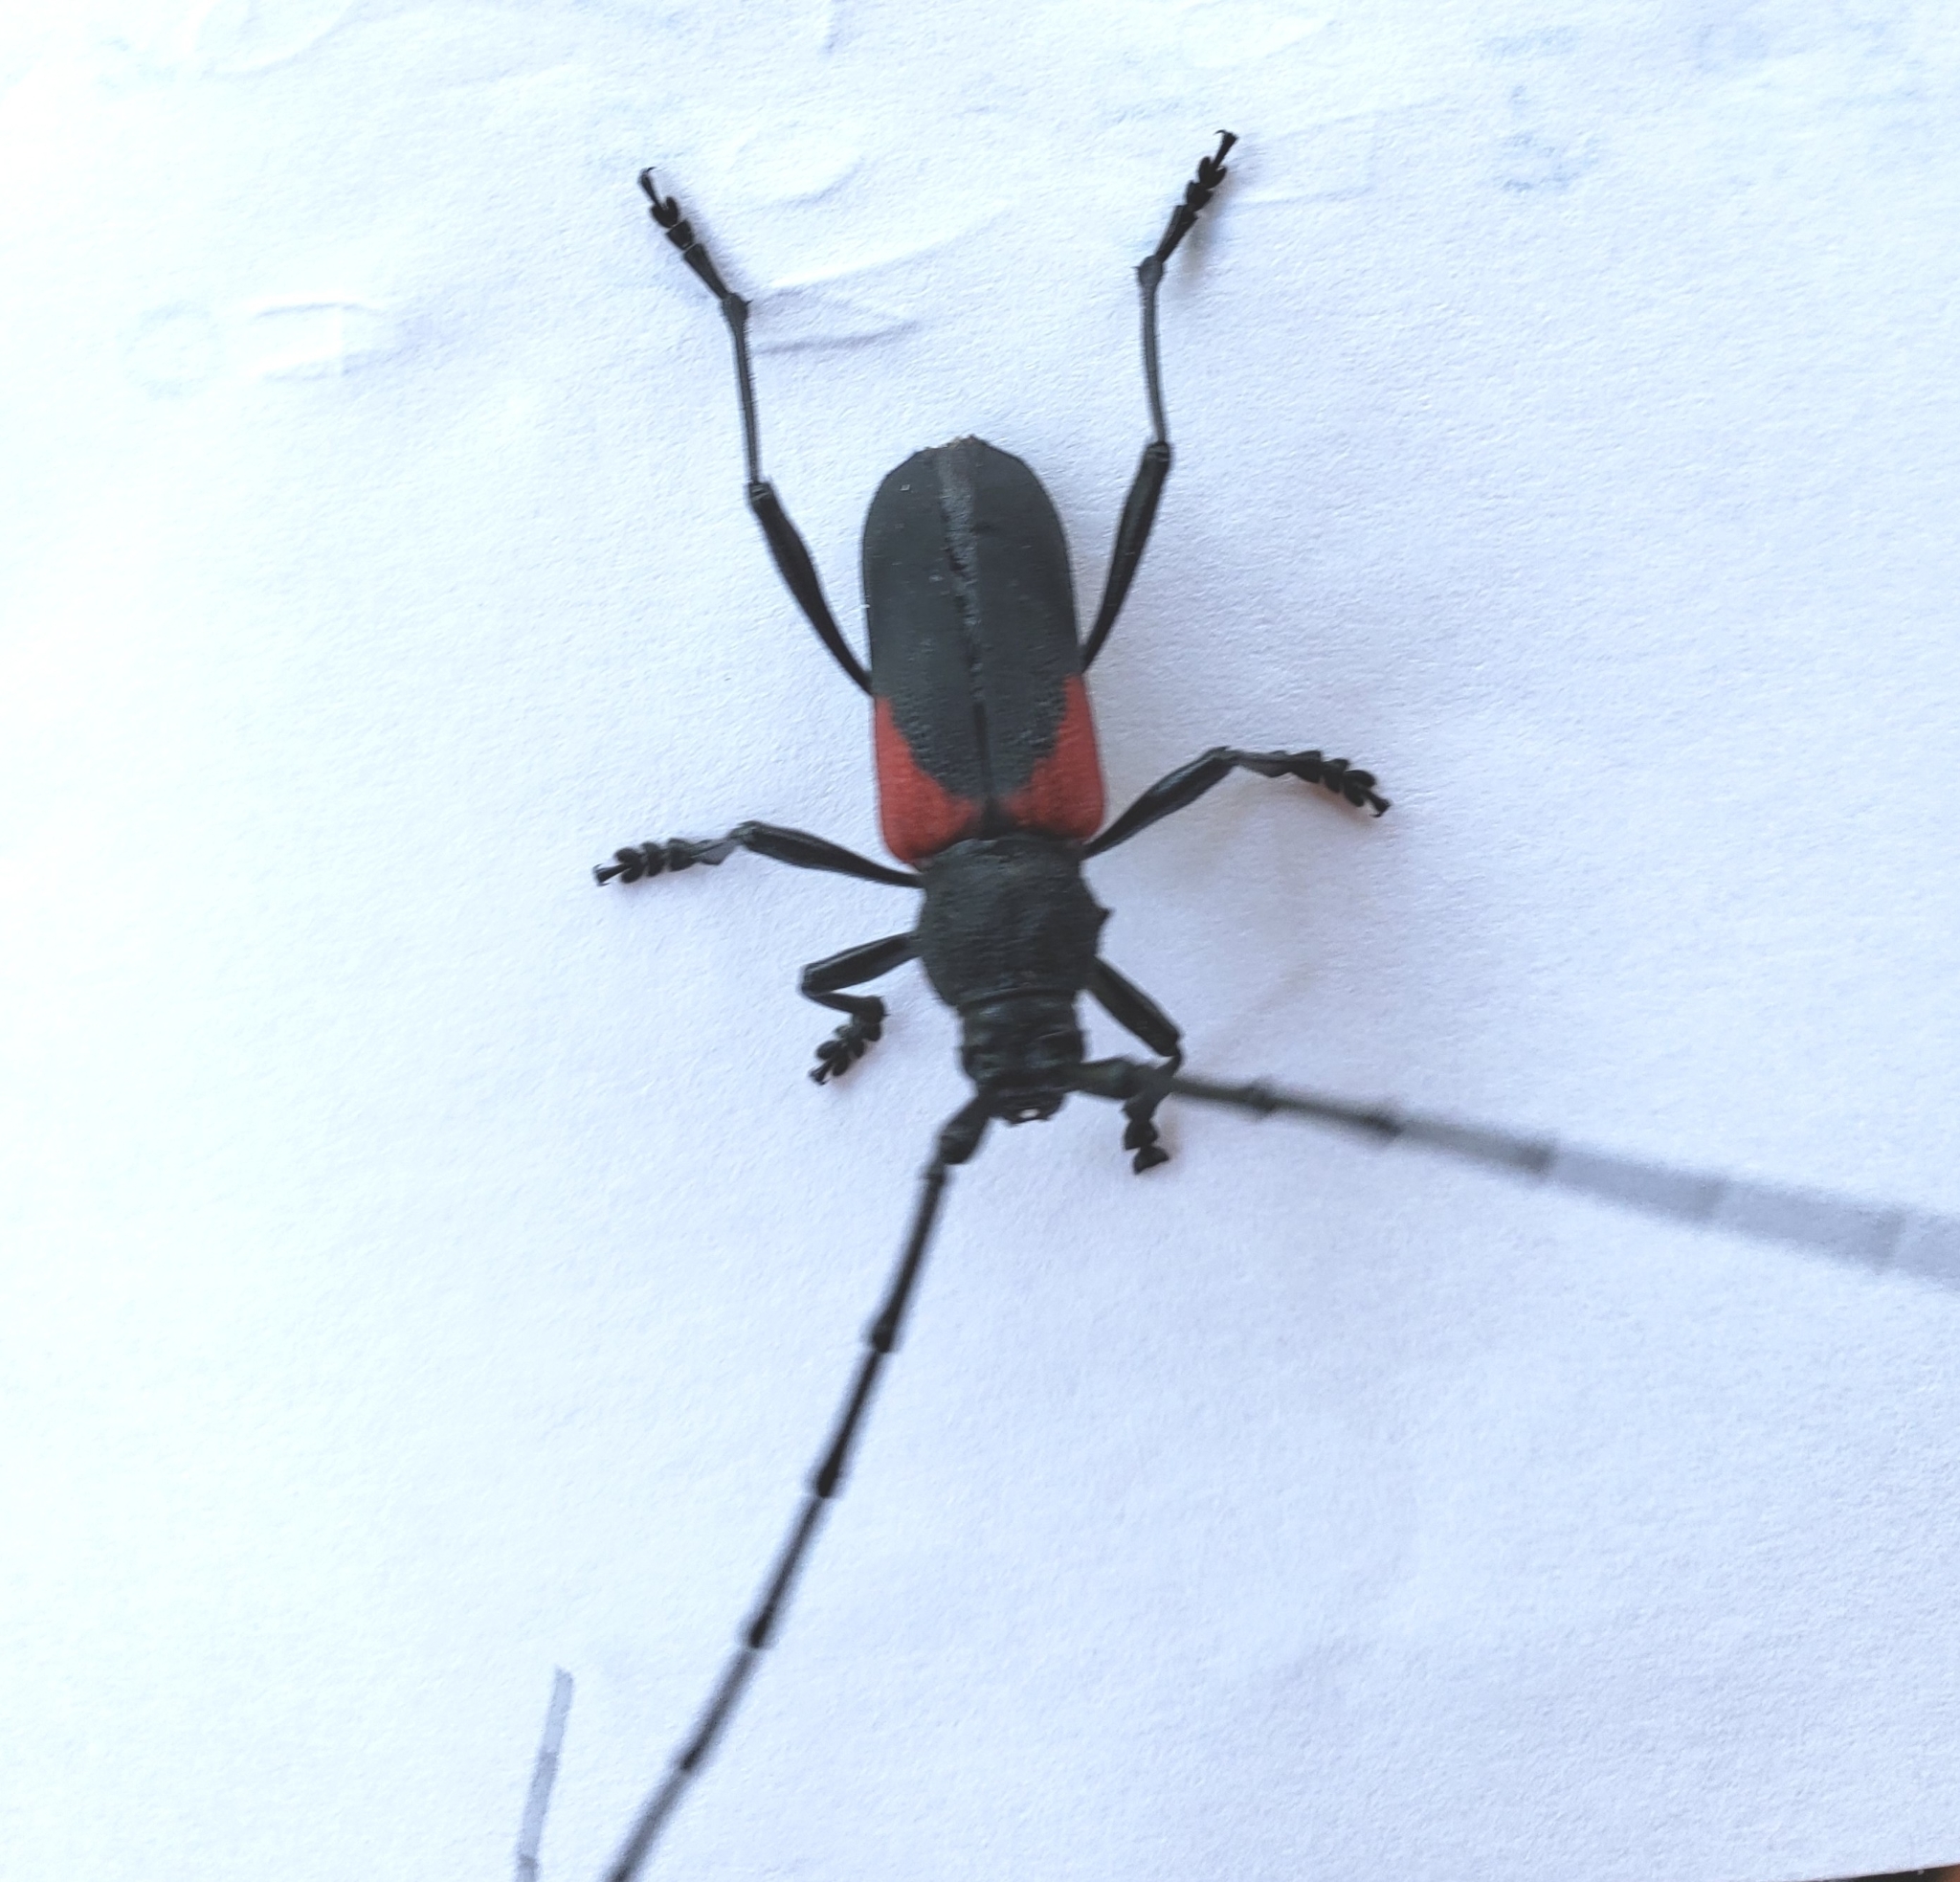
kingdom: Animalia
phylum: Arthropoda
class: Insecta
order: Coleoptera
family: Cerambycidae
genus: Purpuricenus
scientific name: Purpuricenus humeralis
